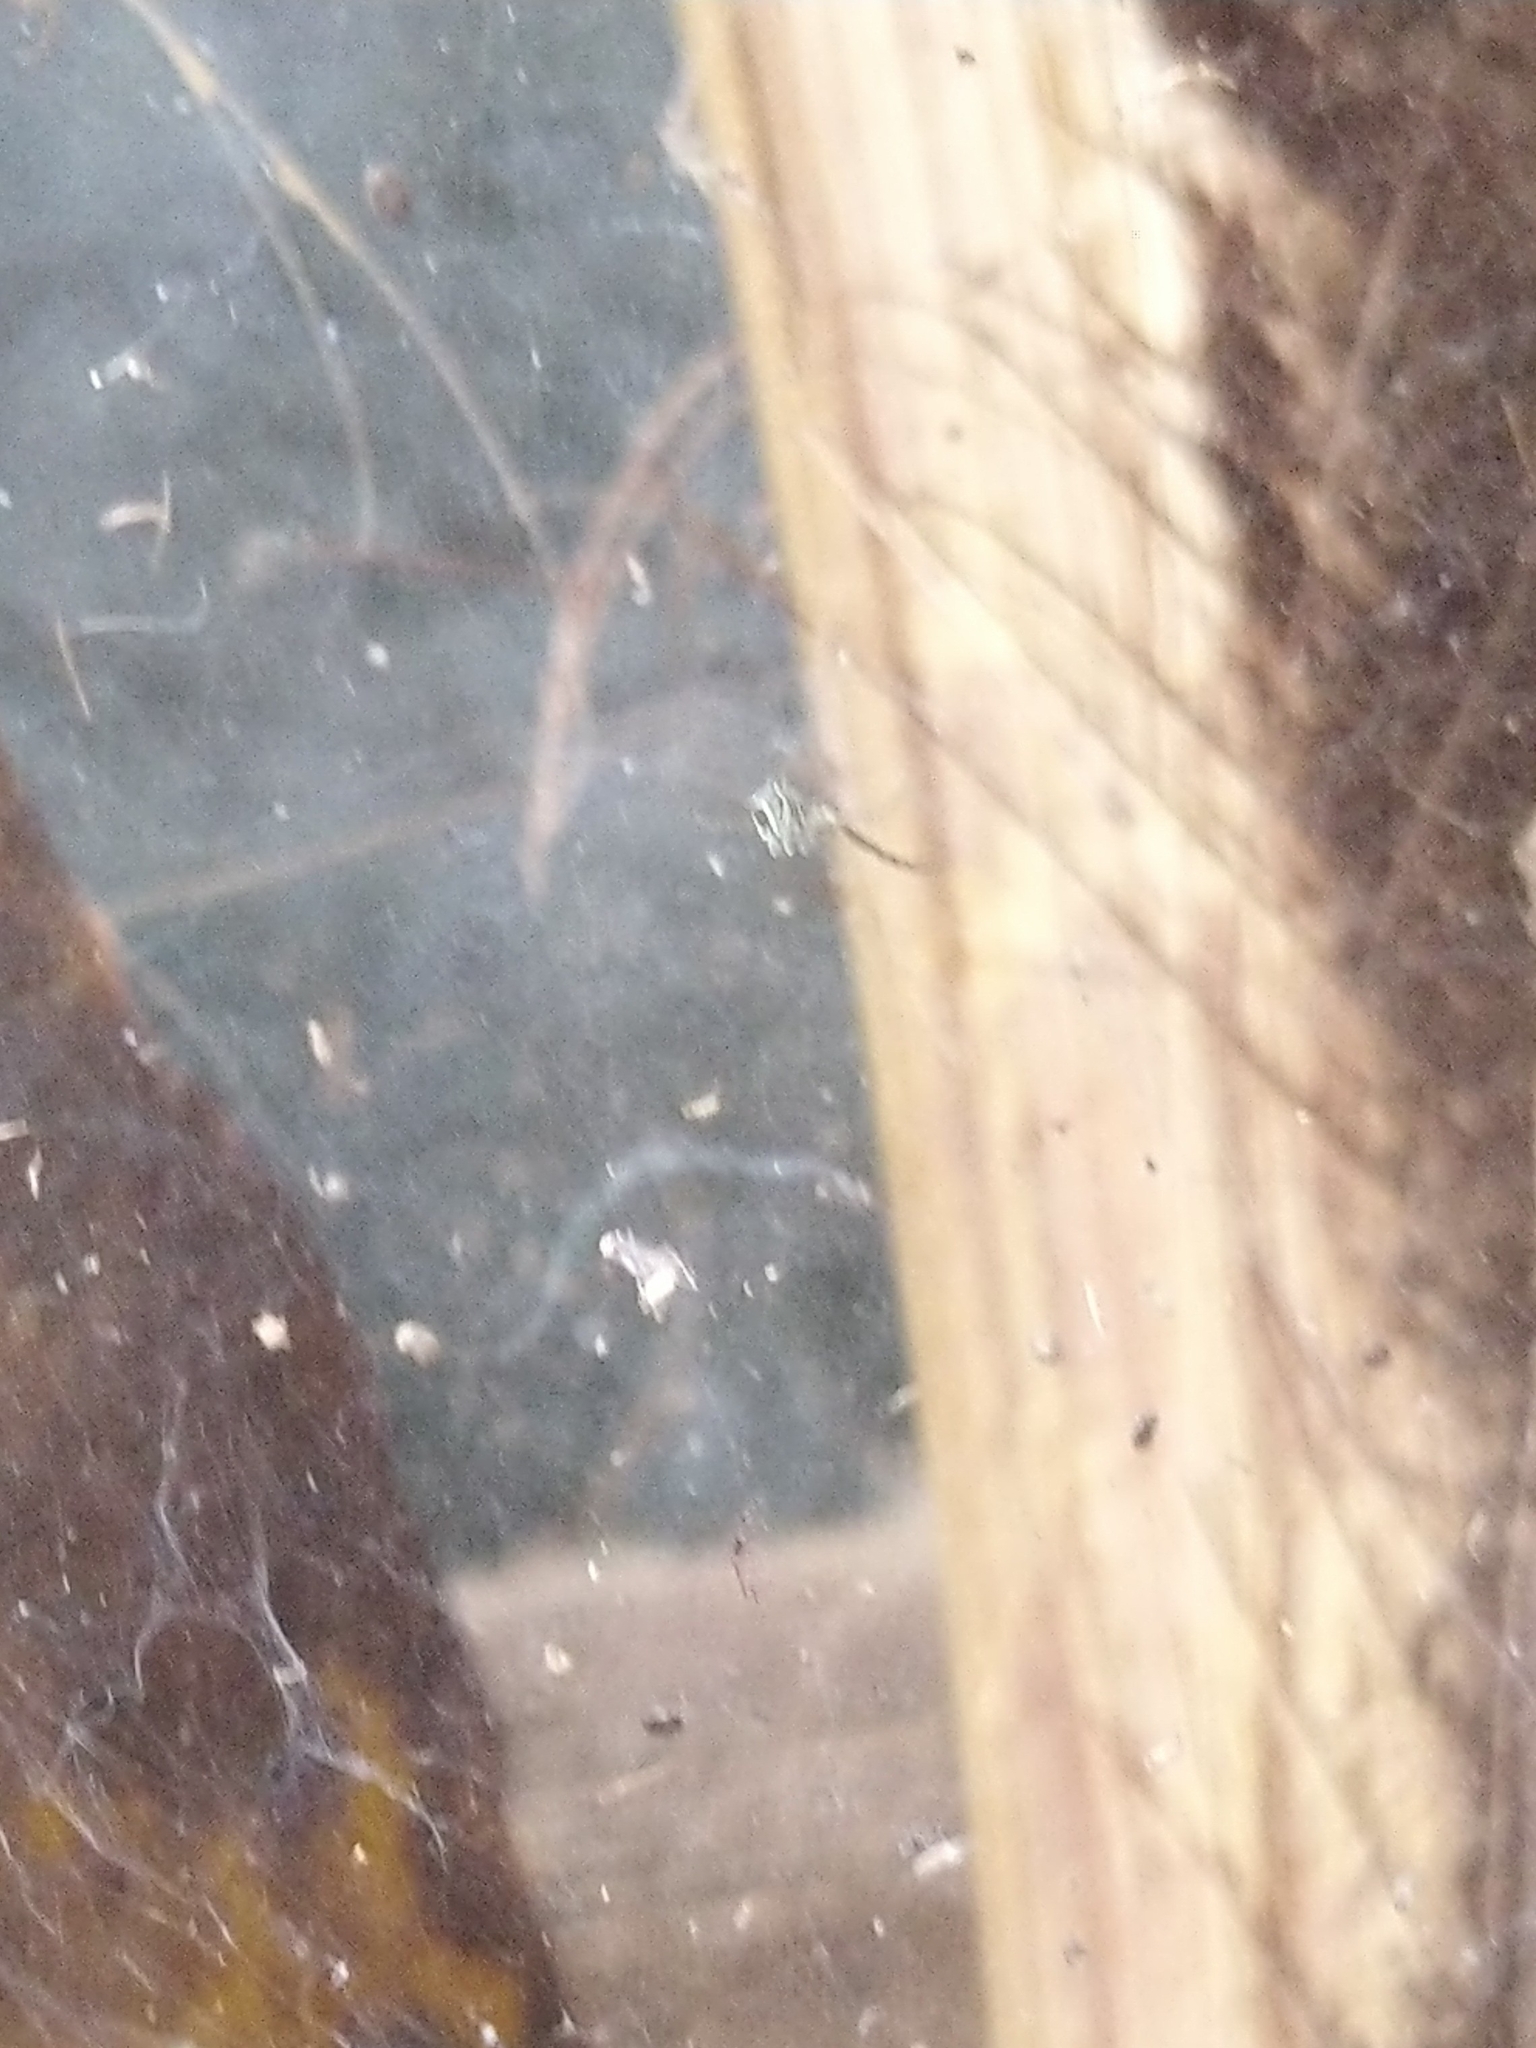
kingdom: Animalia
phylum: Arthropoda
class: Arachnida
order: Araneae
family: Araneidae
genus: Cyrtophora
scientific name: Cyrtophora cicatrosa
